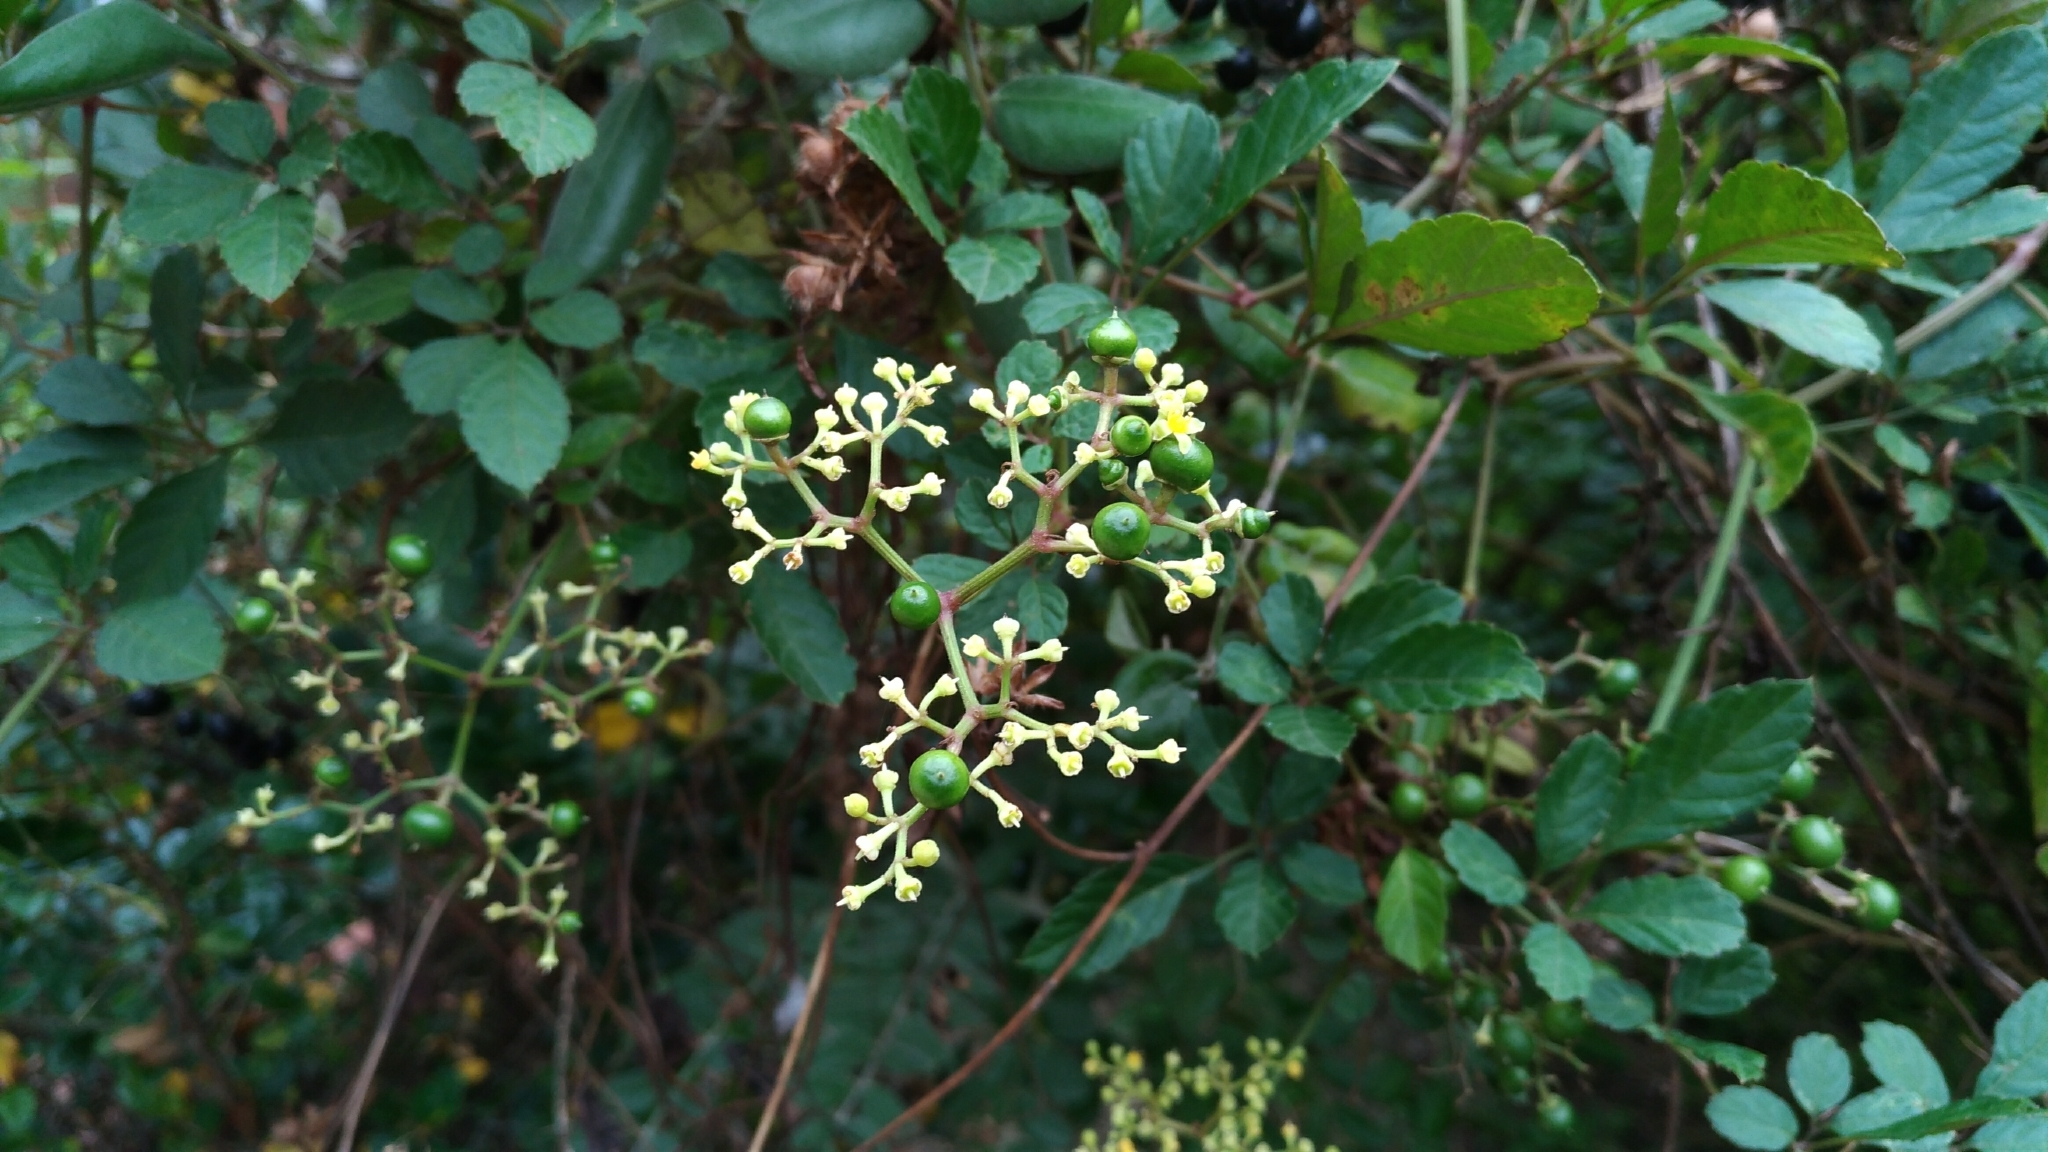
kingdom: Plantae
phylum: Tracheophyta
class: Magnoliopsida
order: Vitales
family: Vitaceae
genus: Causonis
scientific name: Causonis japonica
